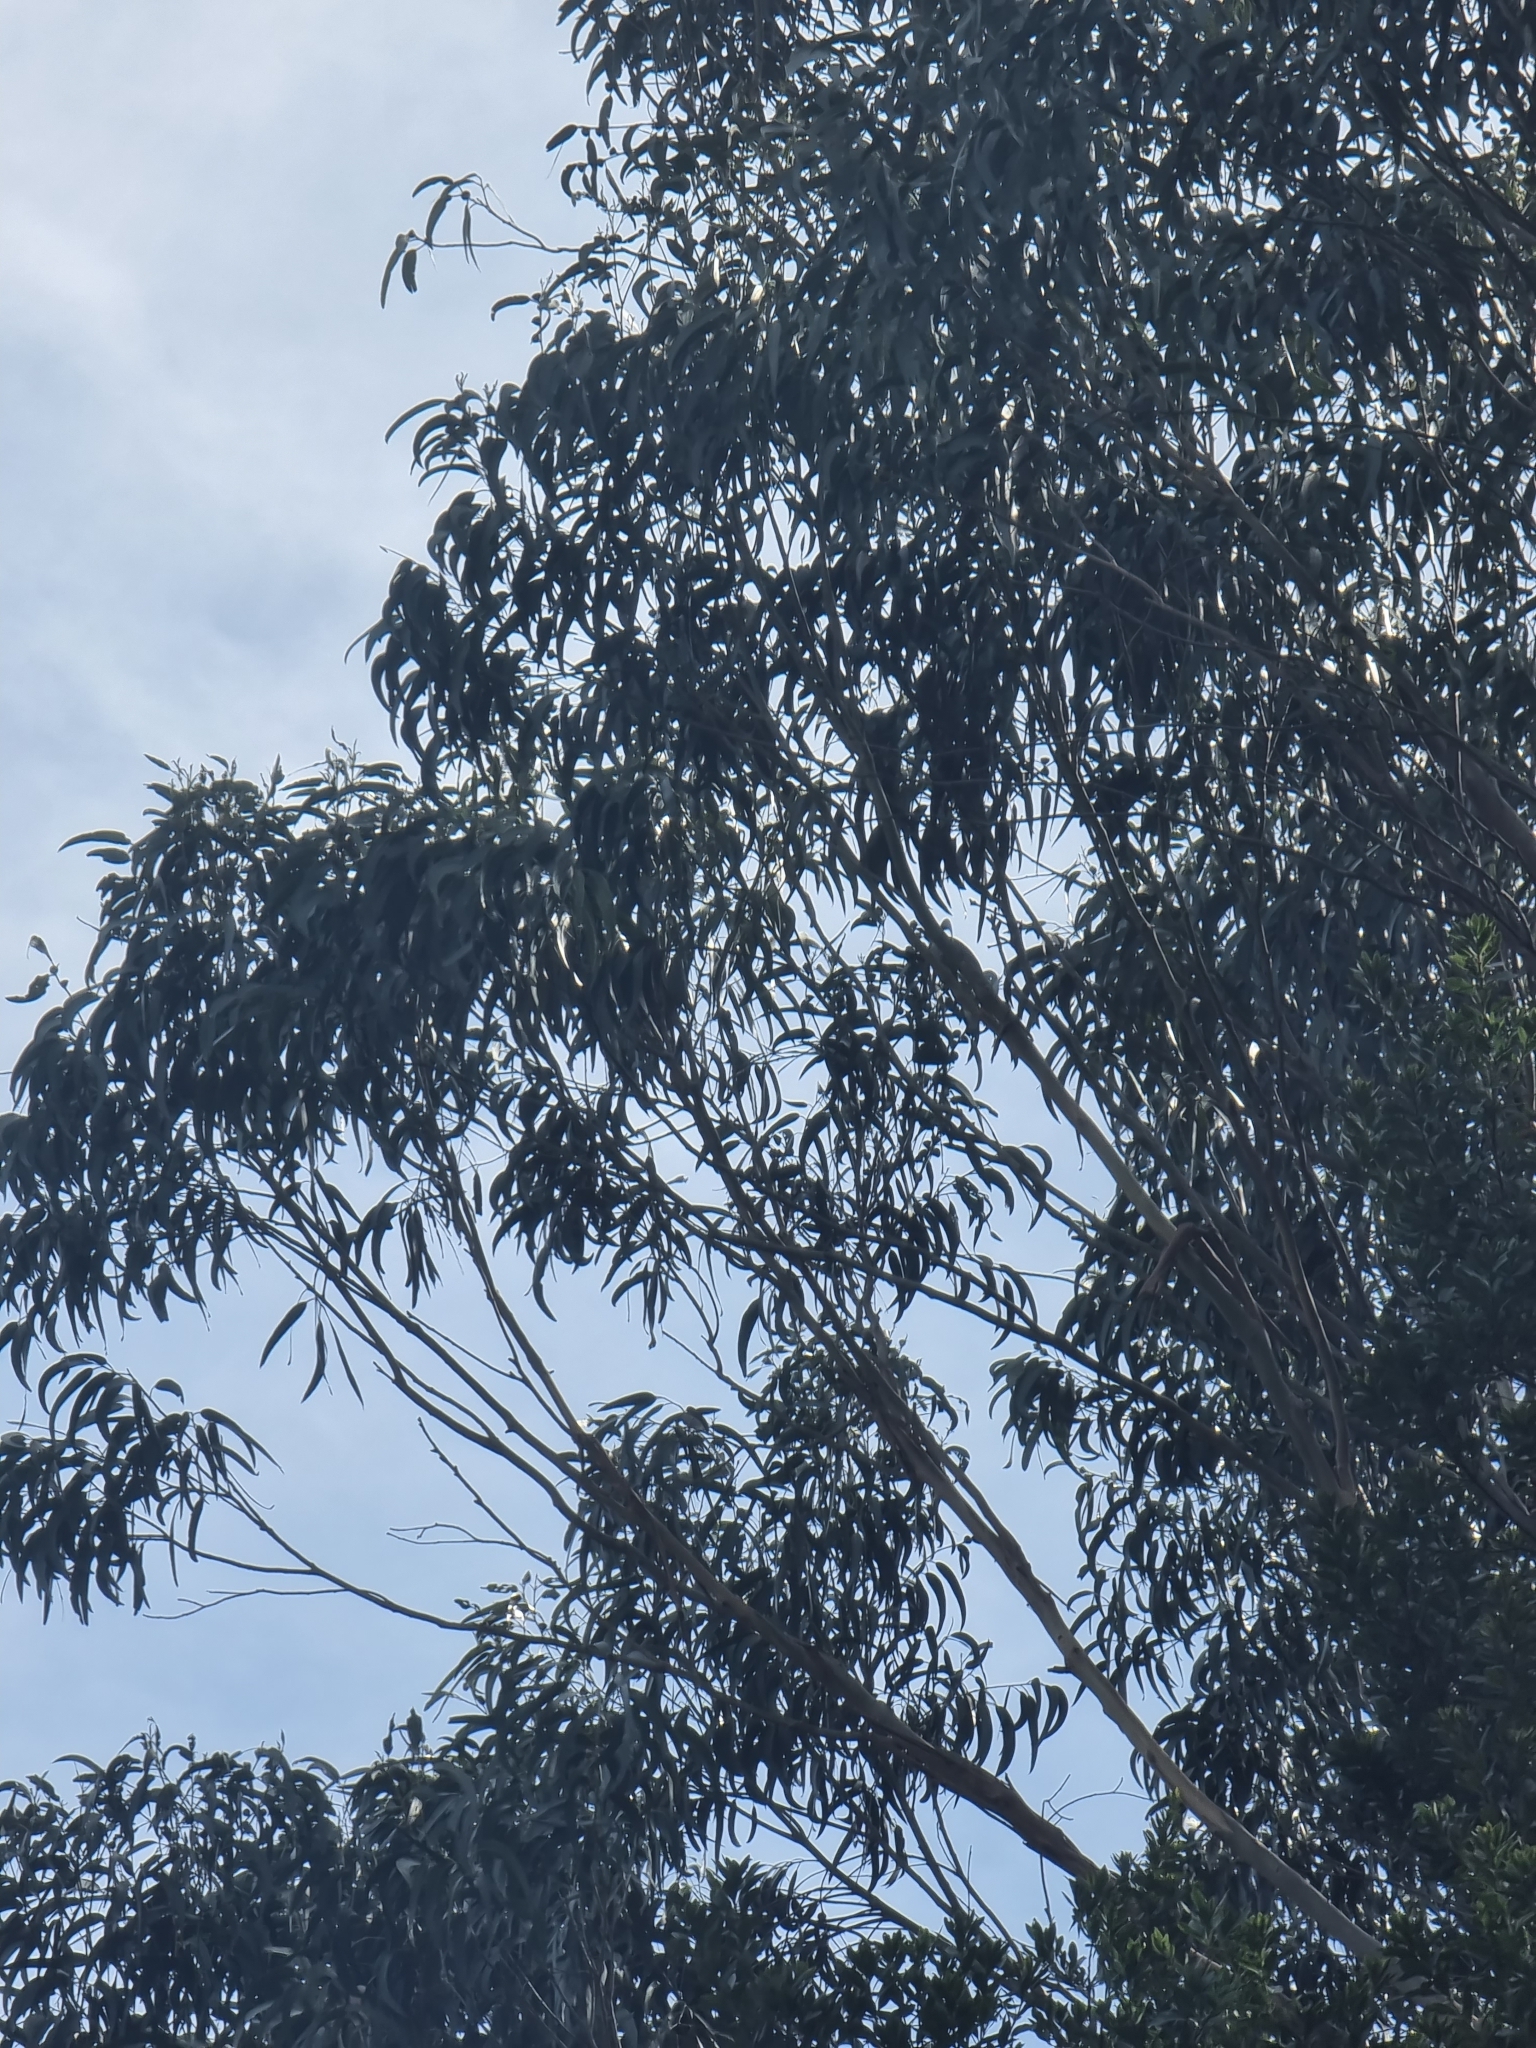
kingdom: Plantae
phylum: Tracheophyta
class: Magnoliopsida
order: Myrtales
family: Myrtaceae
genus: Eucalyptus
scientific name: Eucalyptus globulus
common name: Southern blue-gum
